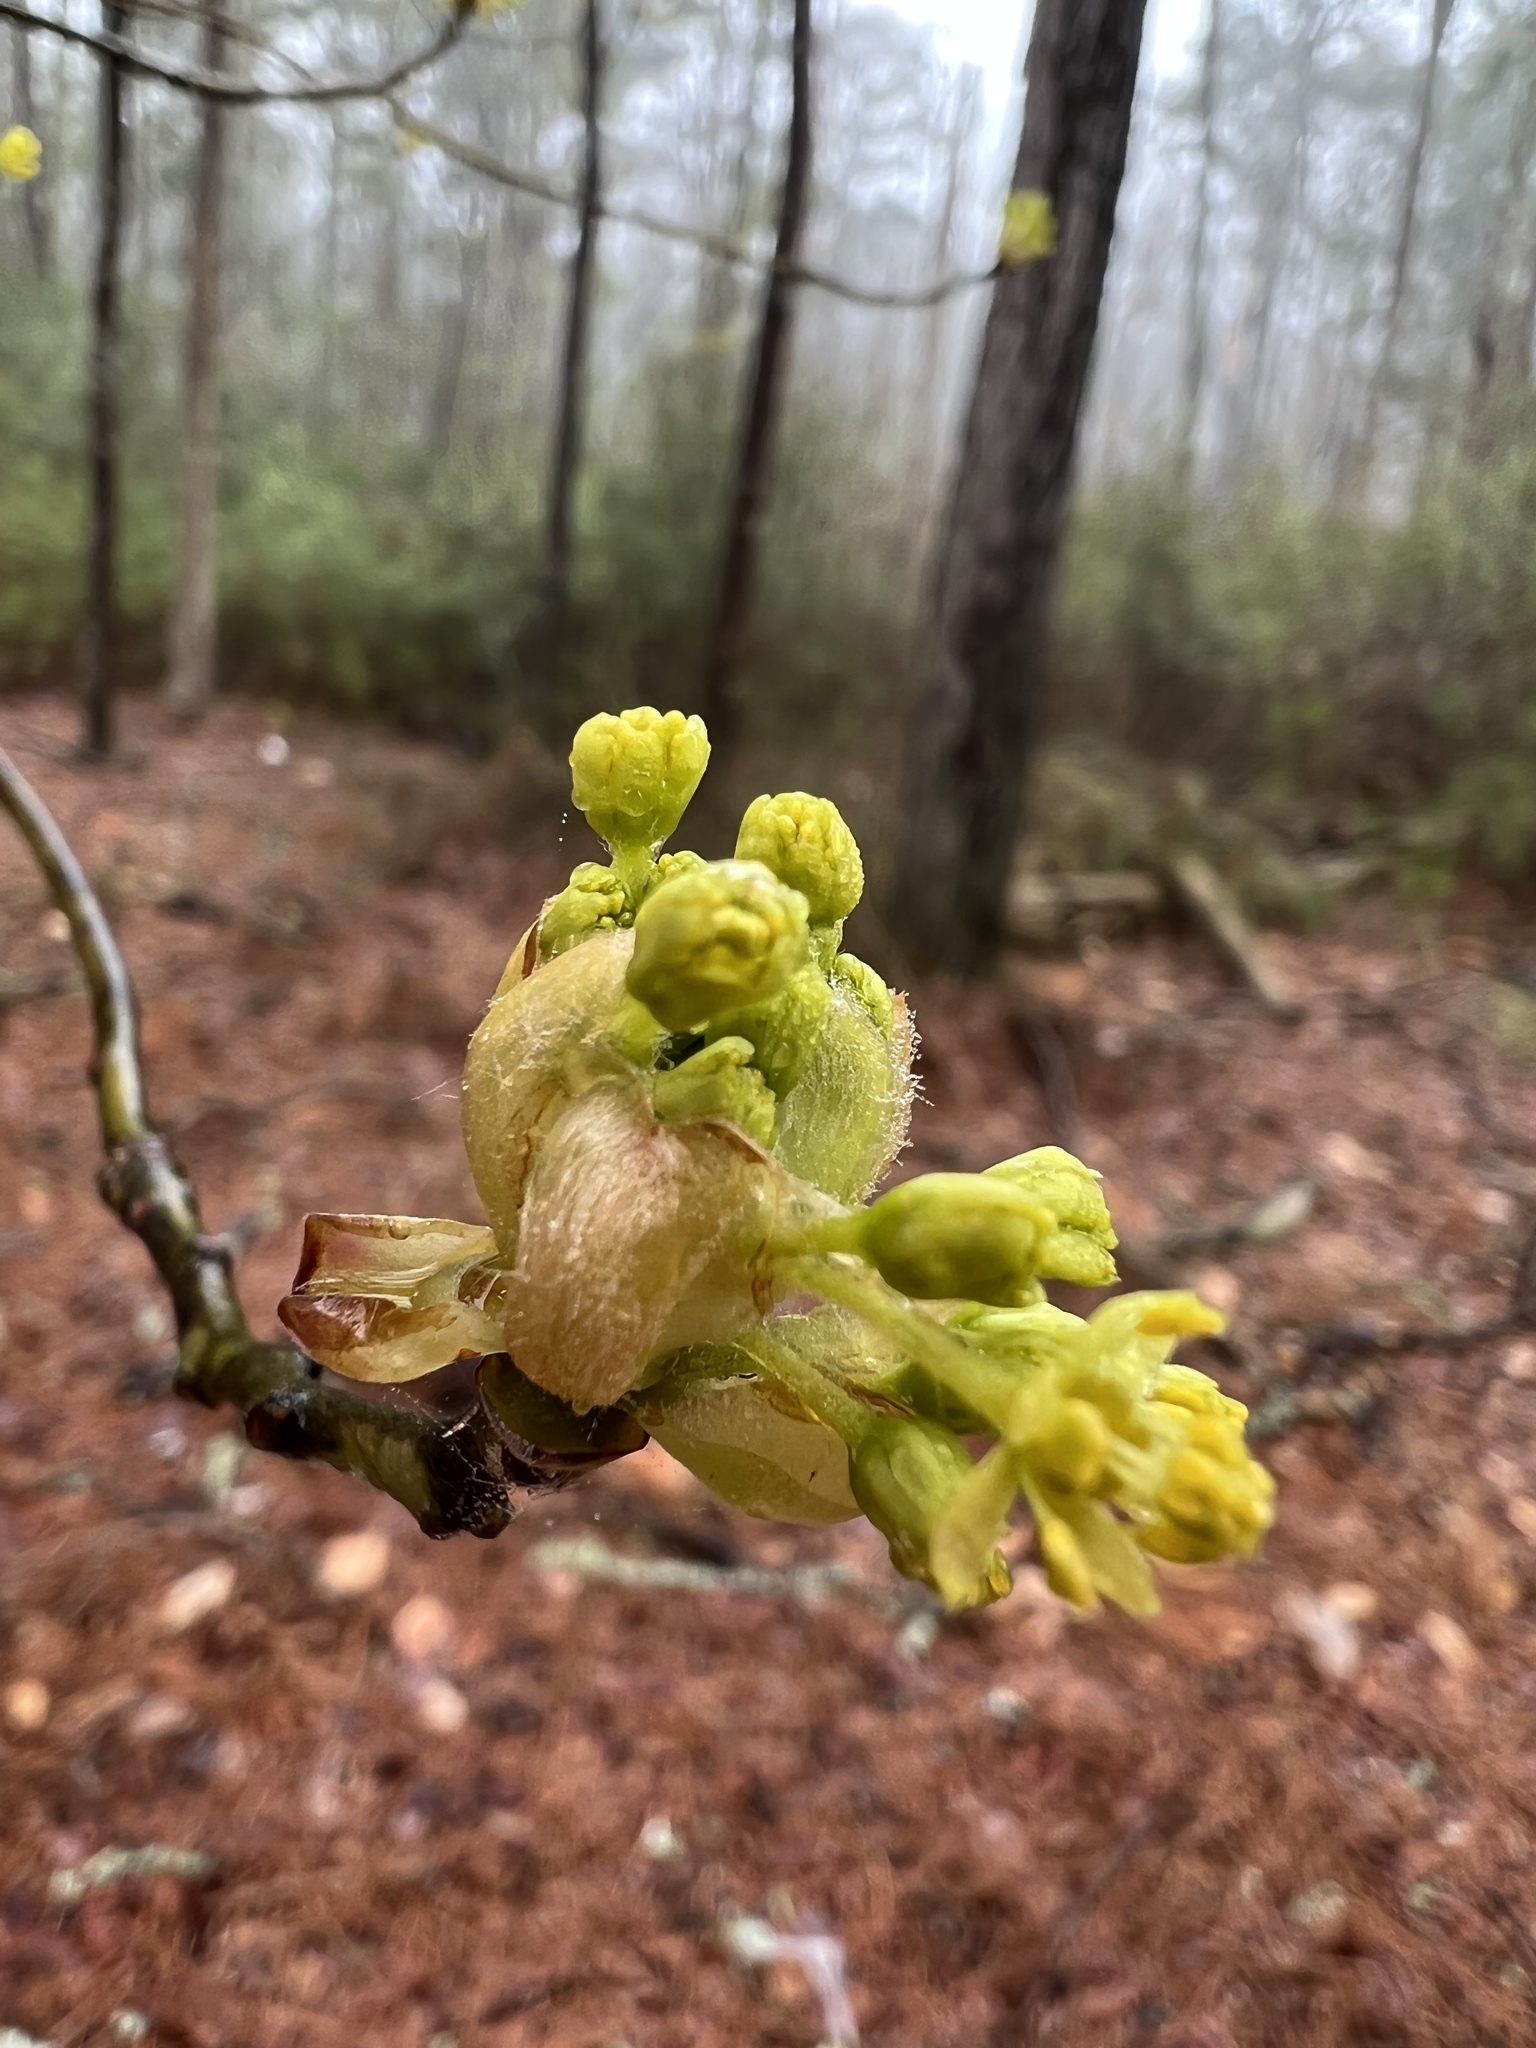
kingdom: Plantae
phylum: Tracheophyta
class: Magnoliopsida
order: Laurales
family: Lauraceae
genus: Sassafras
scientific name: Sassafras albidum
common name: Sassafras
